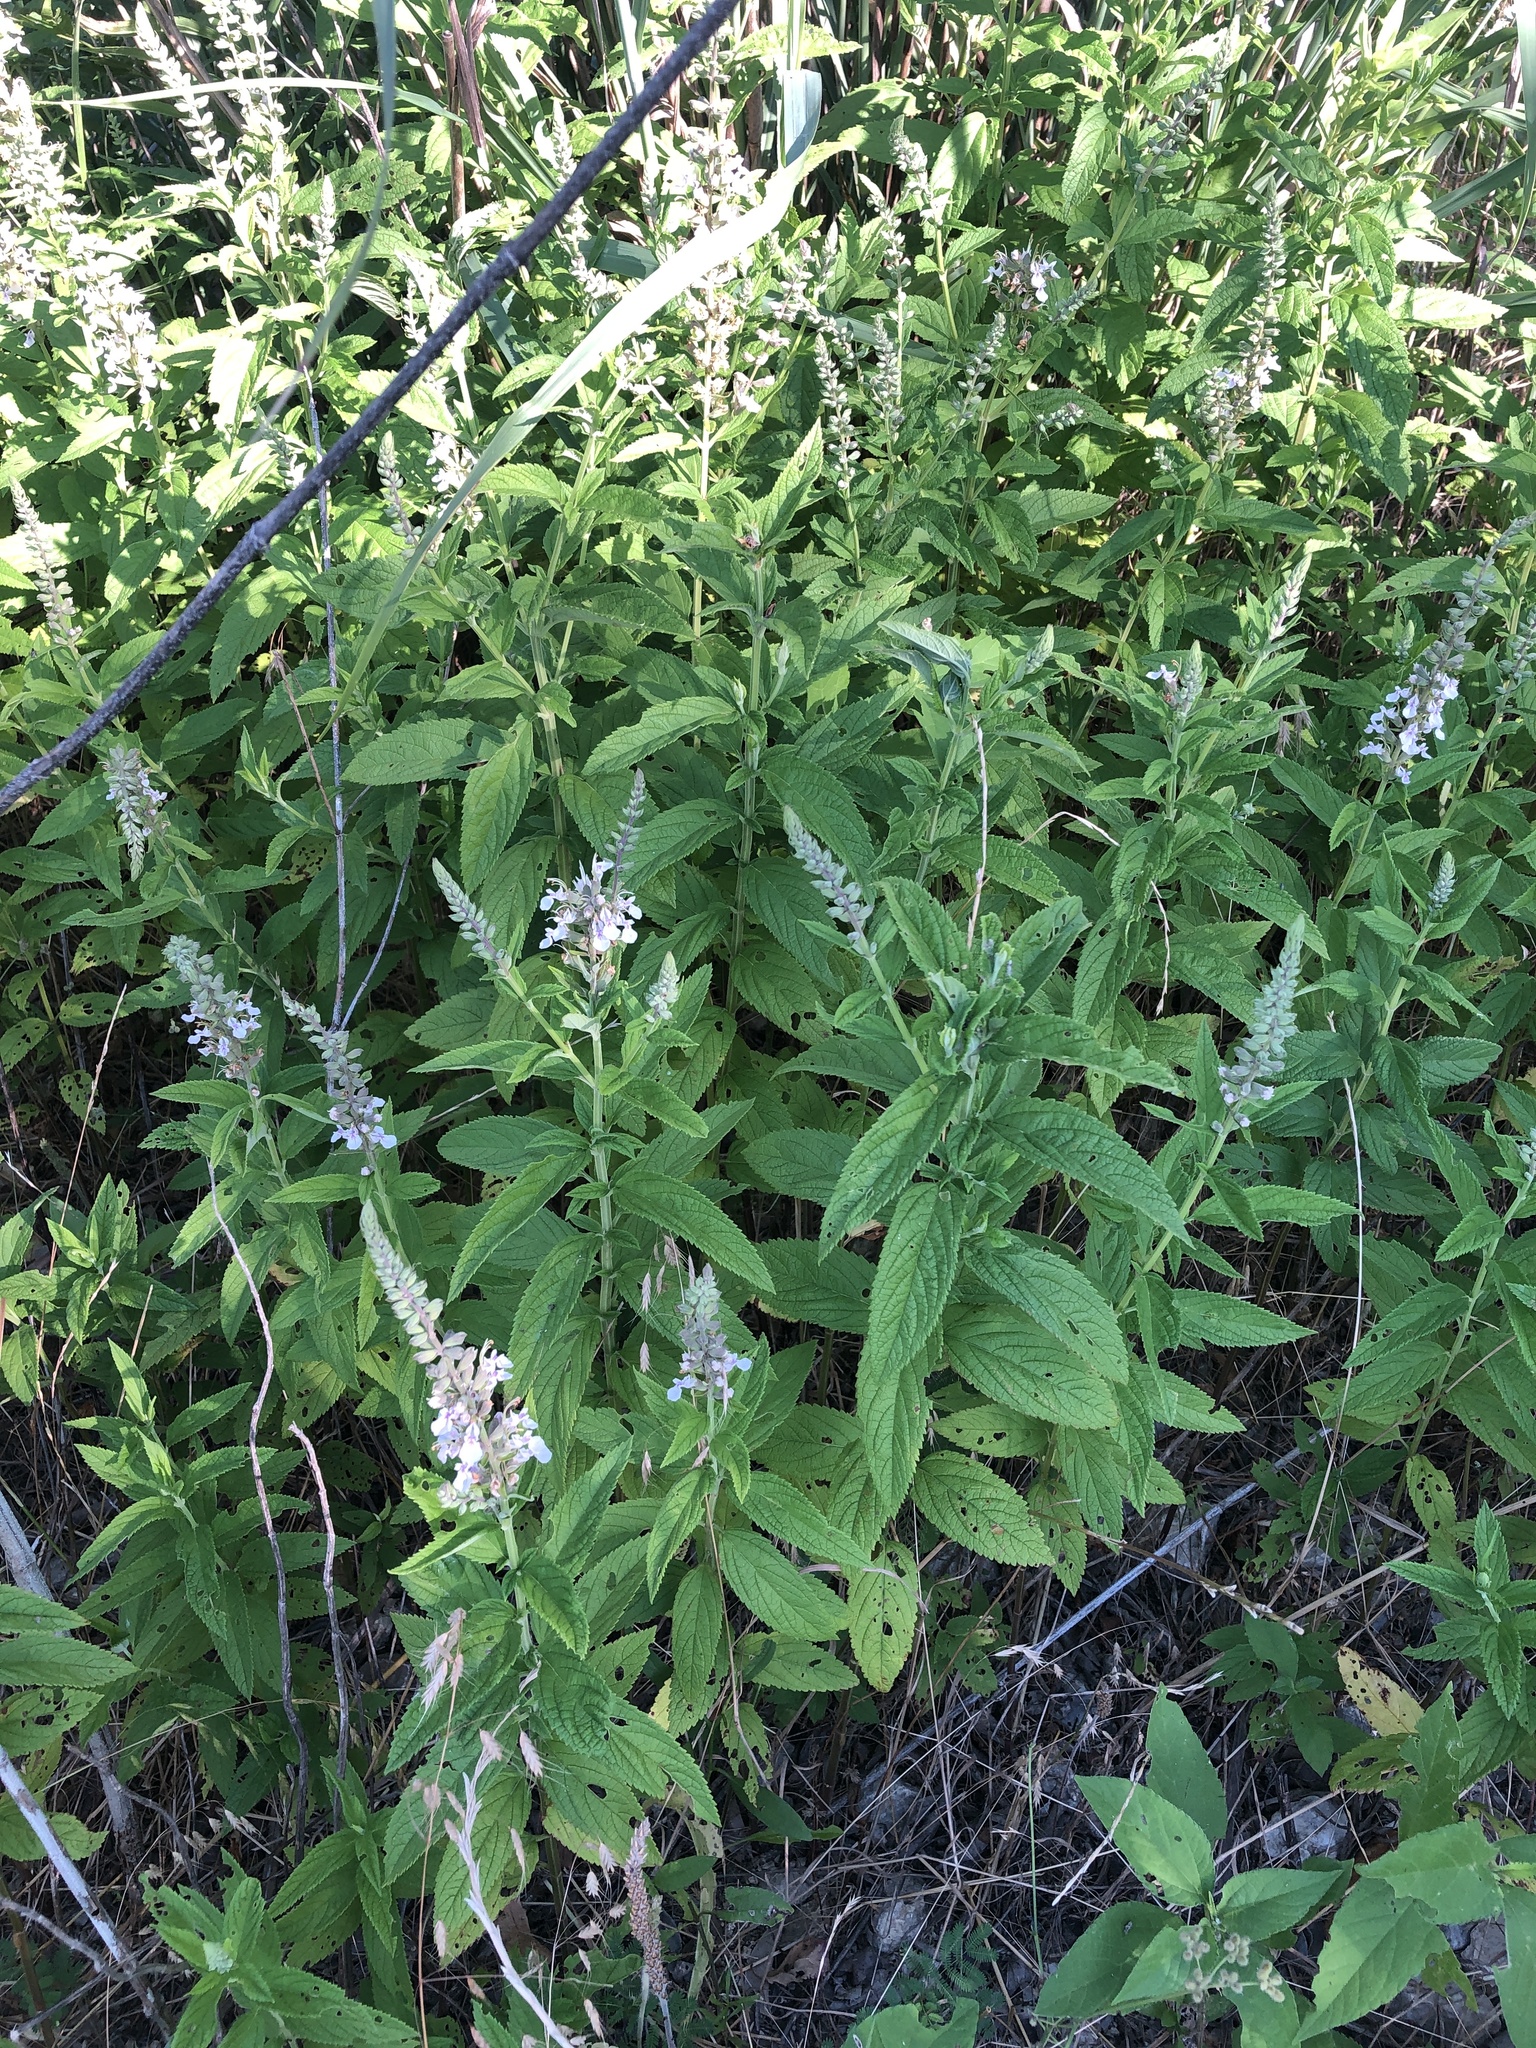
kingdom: Plantae
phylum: Tracheophyta
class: Magnoliopsida
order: Lamiales
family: Lamiaceae
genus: Teucrium
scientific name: Teucrium canadense
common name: American germander
